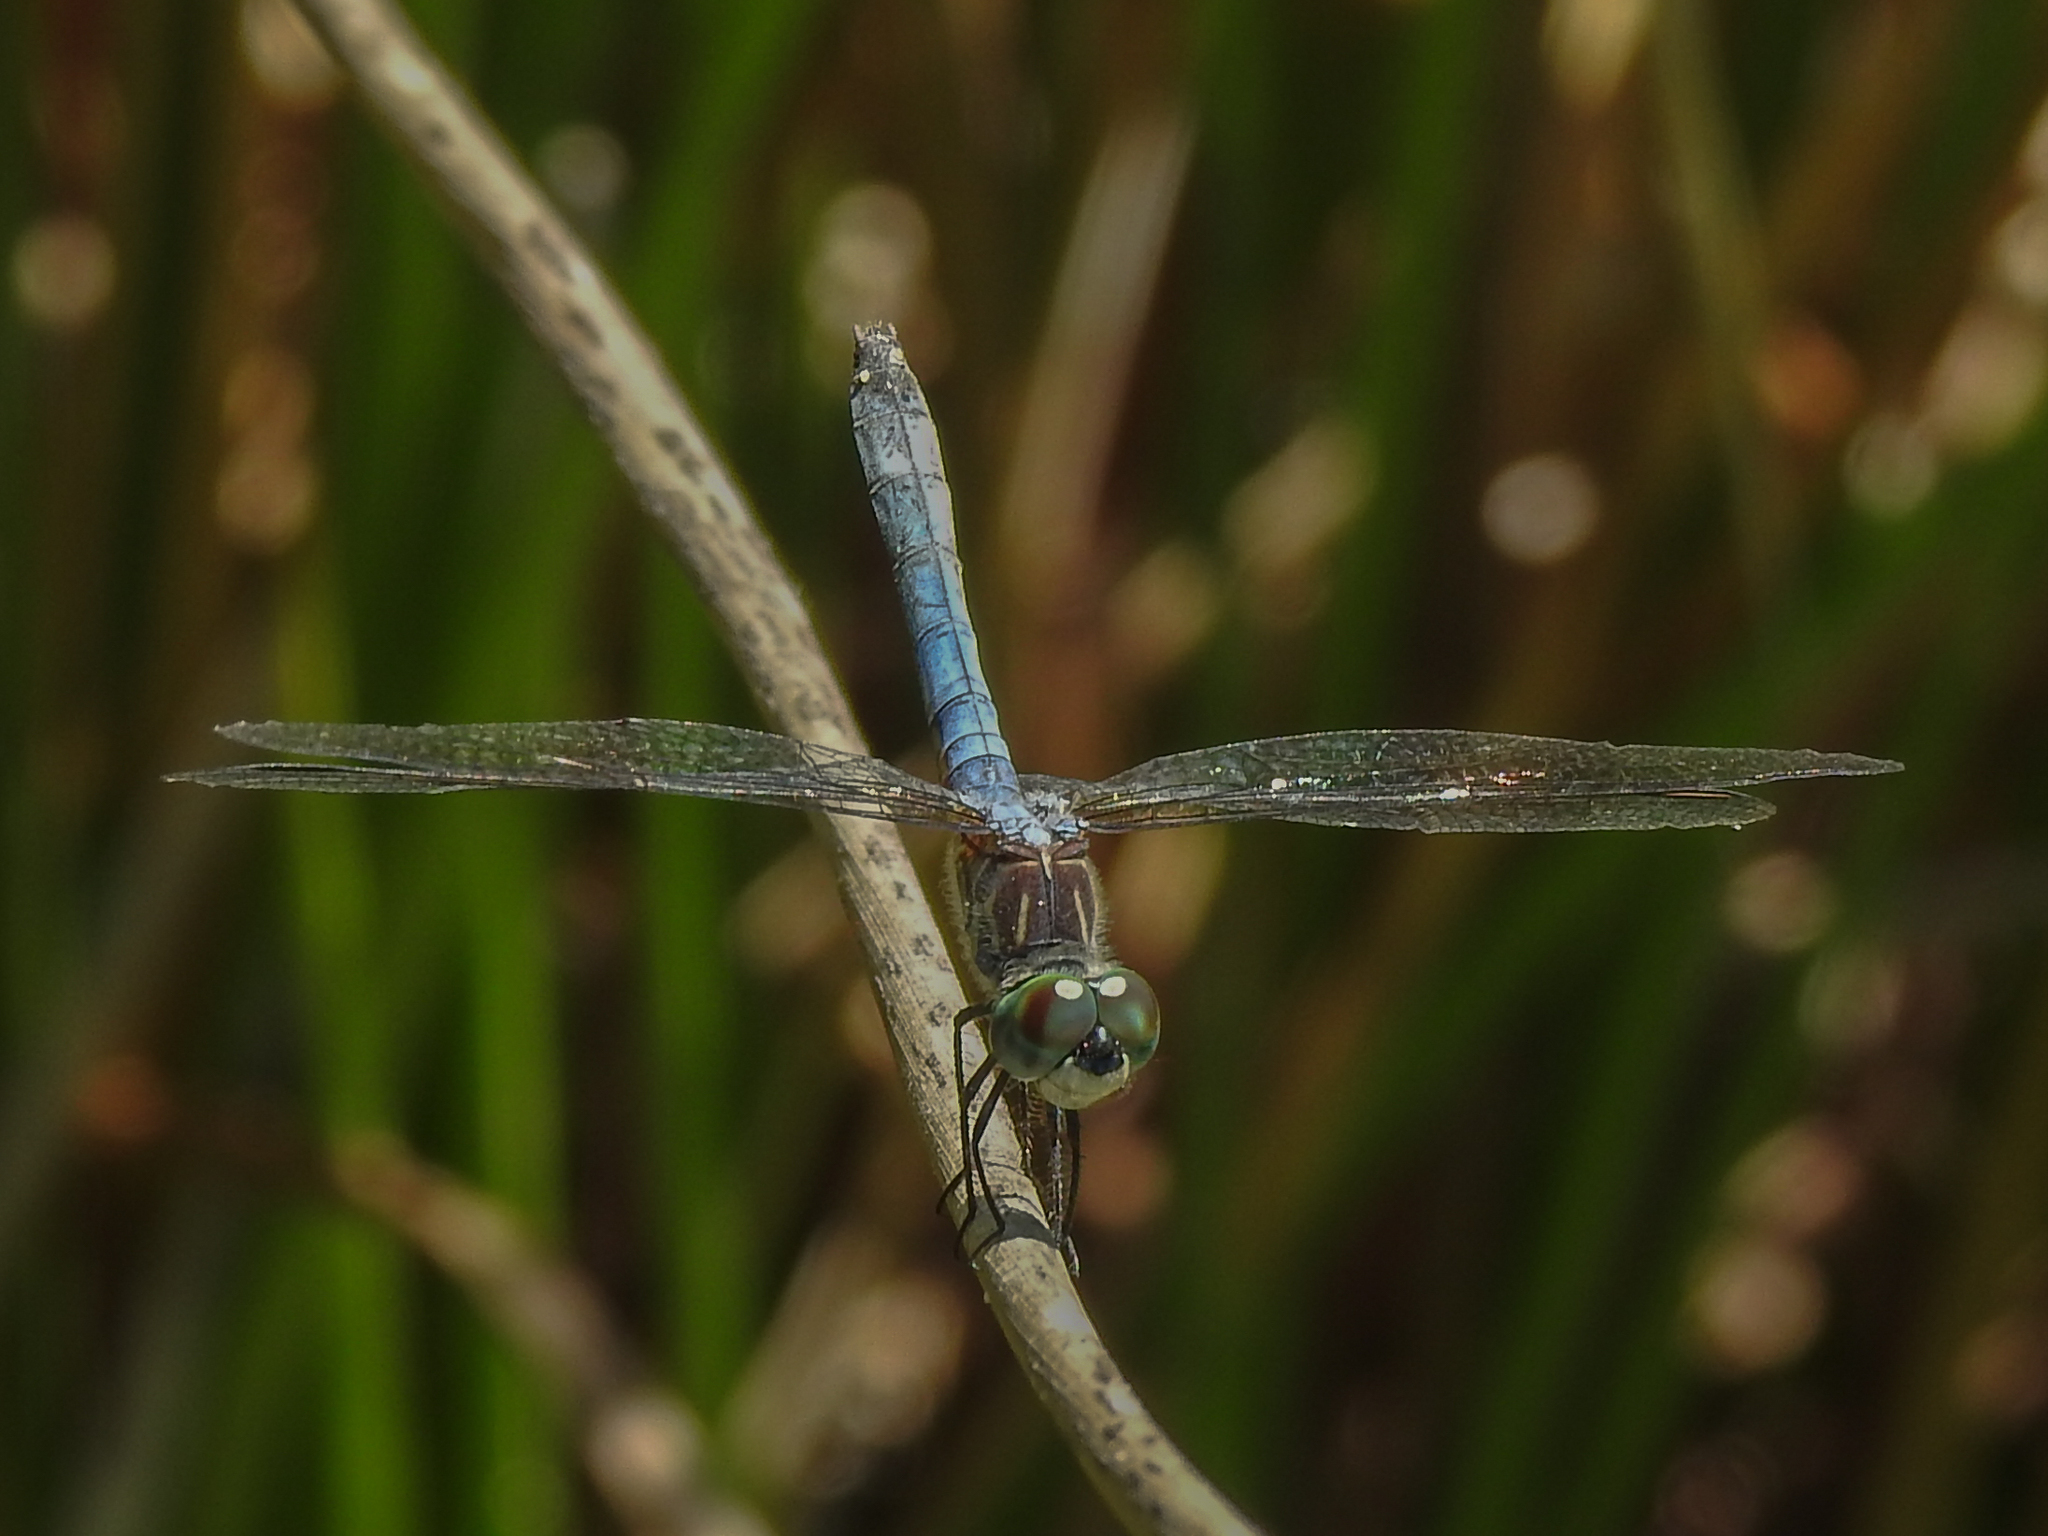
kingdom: Animalia
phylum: Arthropoda
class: Insecta
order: Odonata
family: Libellulidae
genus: Pachydiplax
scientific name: Pachydiplax longipennis
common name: Blue dasher
